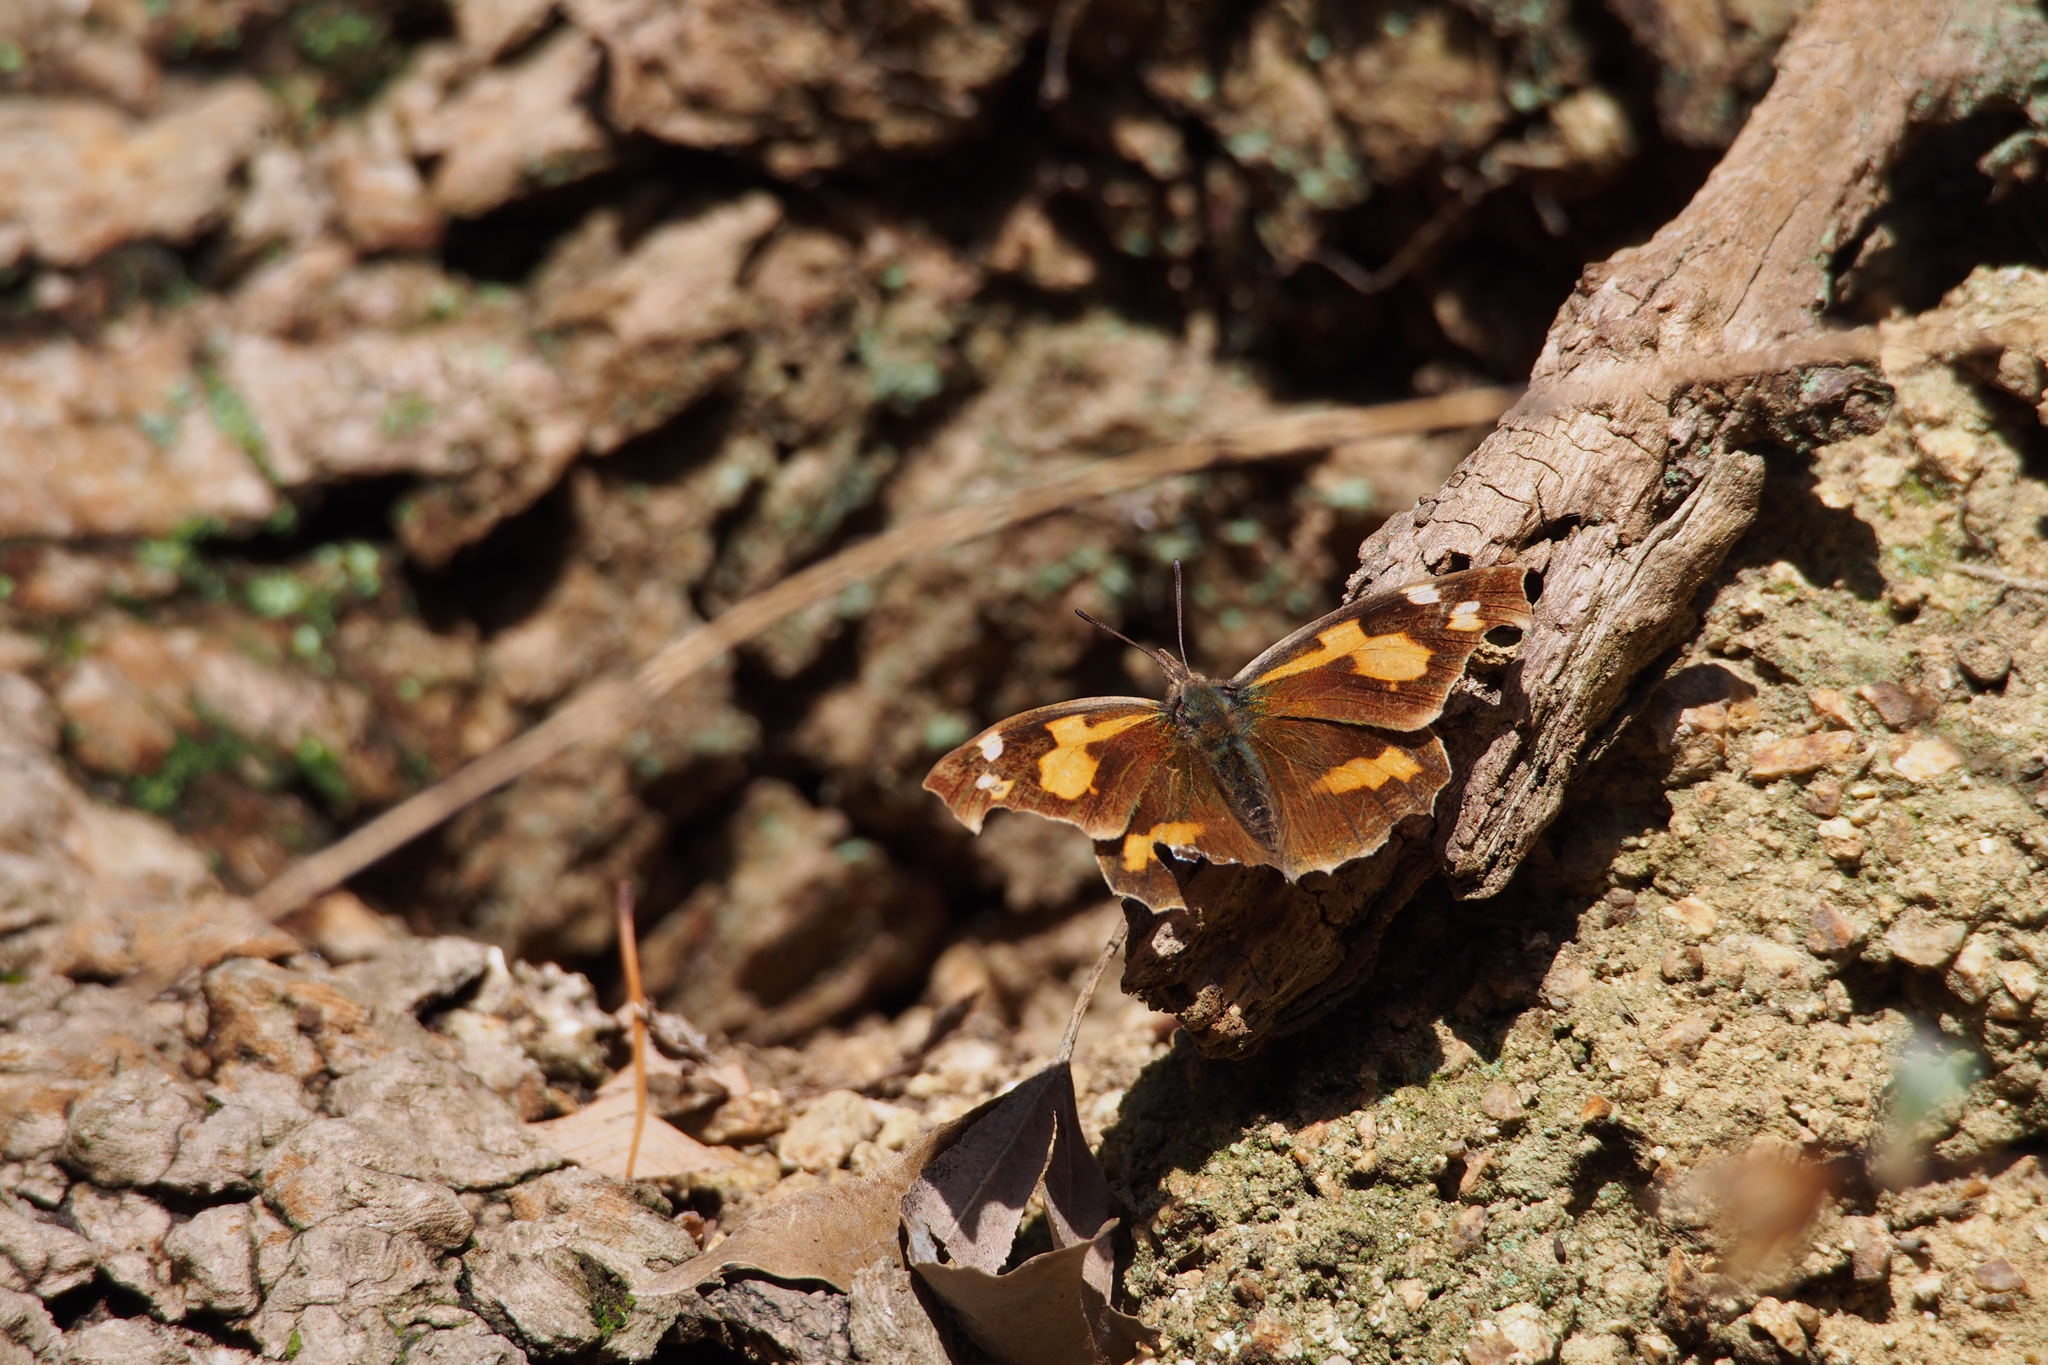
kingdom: Animalia
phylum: Arthropoda
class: Insecta
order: Lepidoptera
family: Nymphalidae
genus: Libythea
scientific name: Libythea lepita
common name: Common beak
